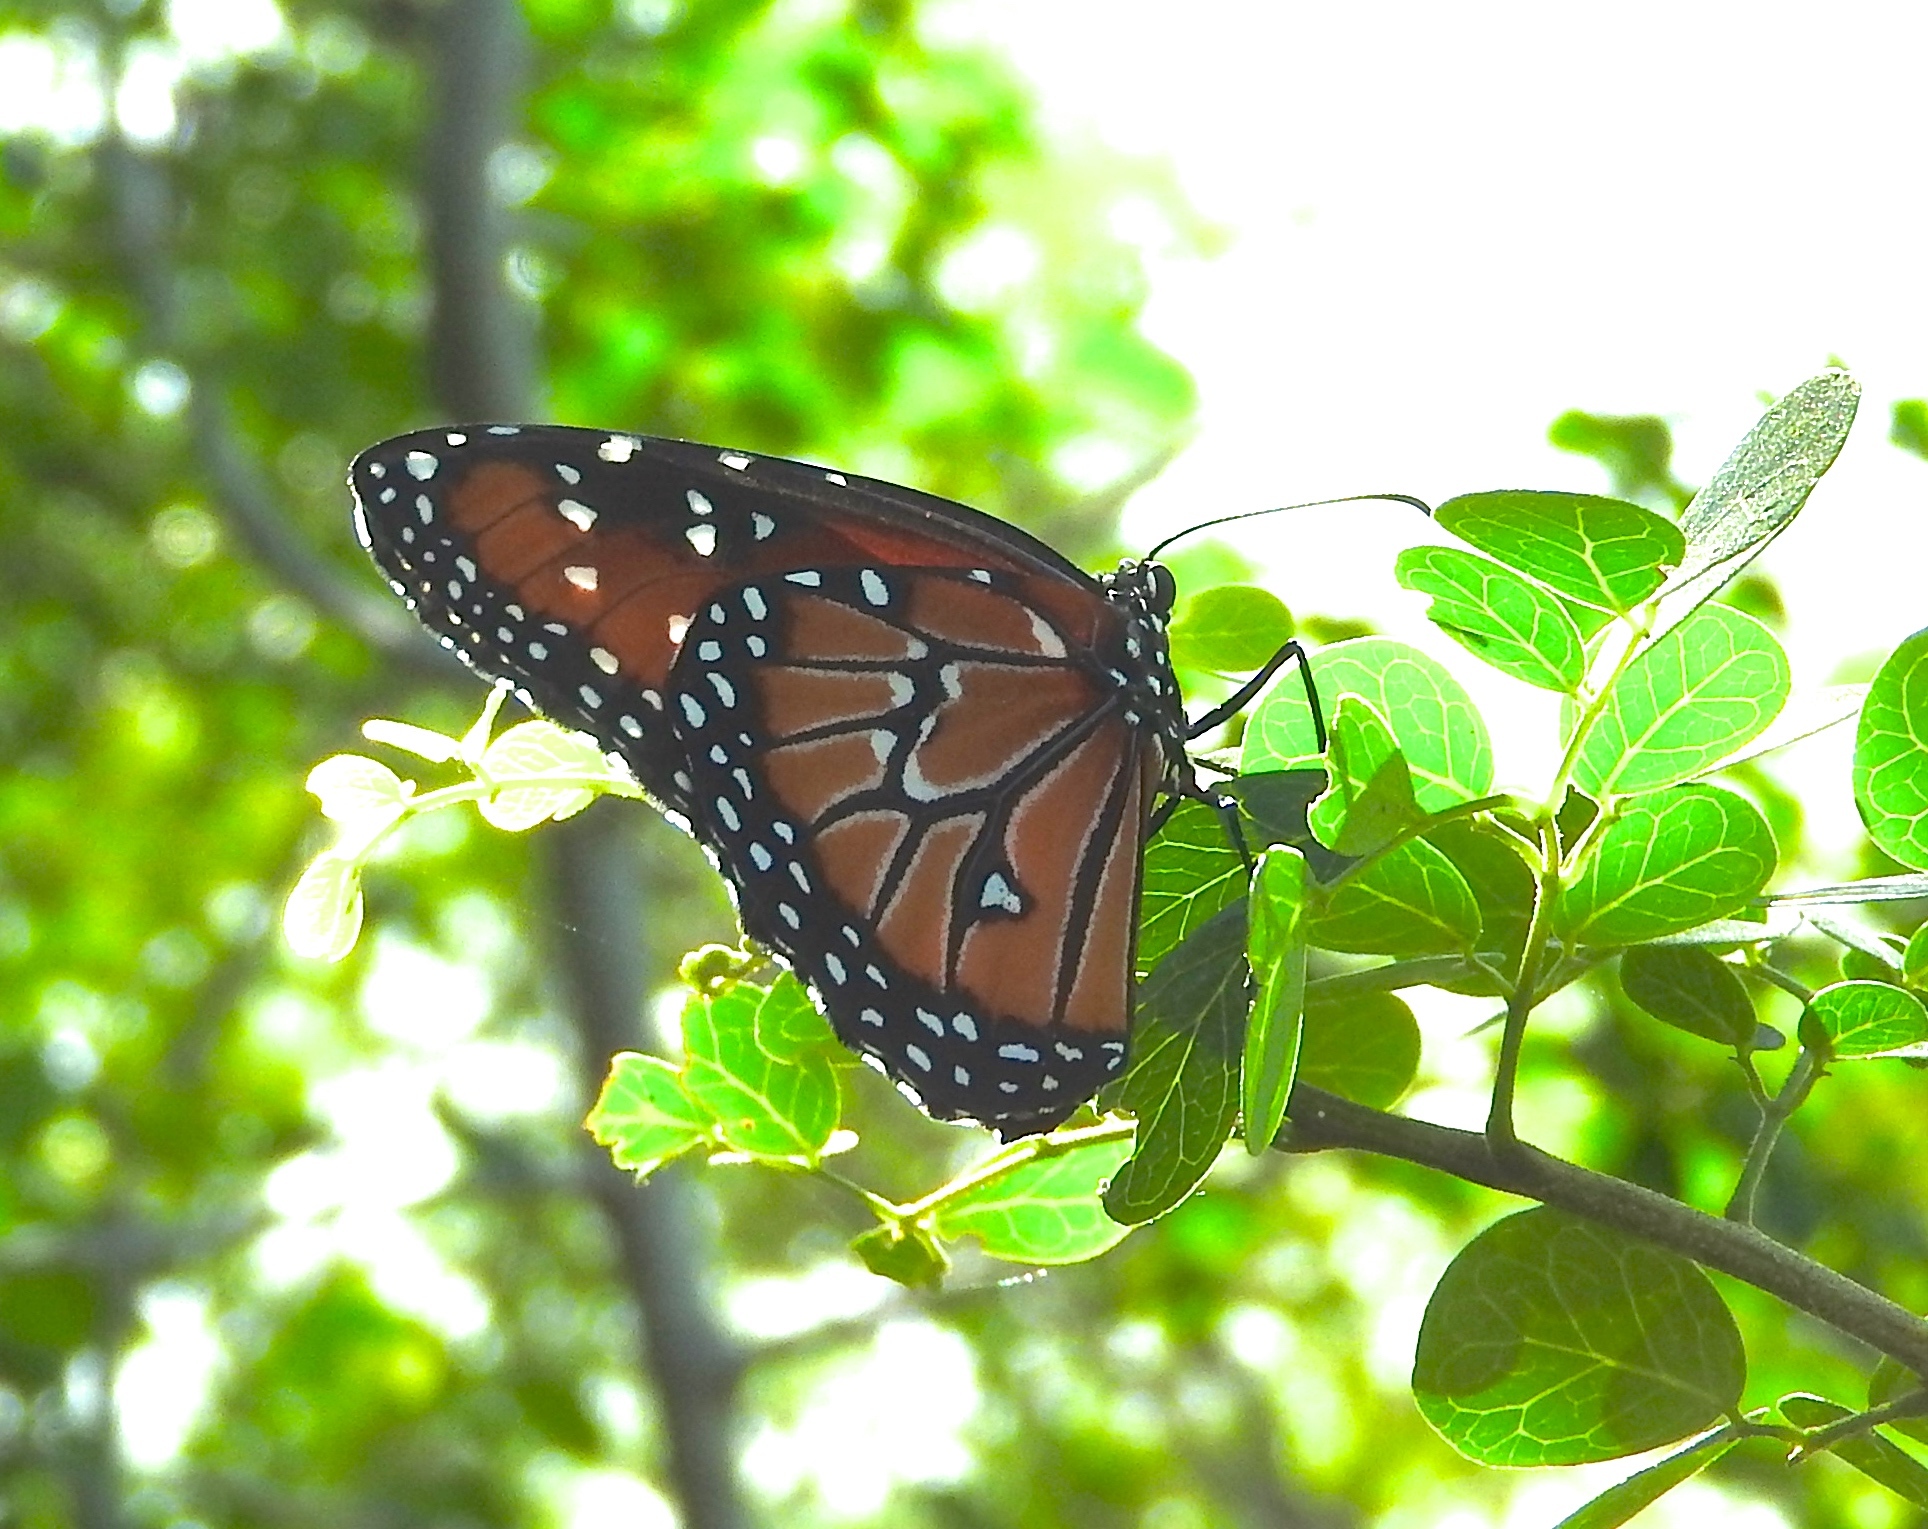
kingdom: Animalia
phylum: Arthropoda
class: Insecta
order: Lepidoptera
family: Nymphalidae
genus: Danaus
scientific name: Danaus gilippus
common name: Queen
